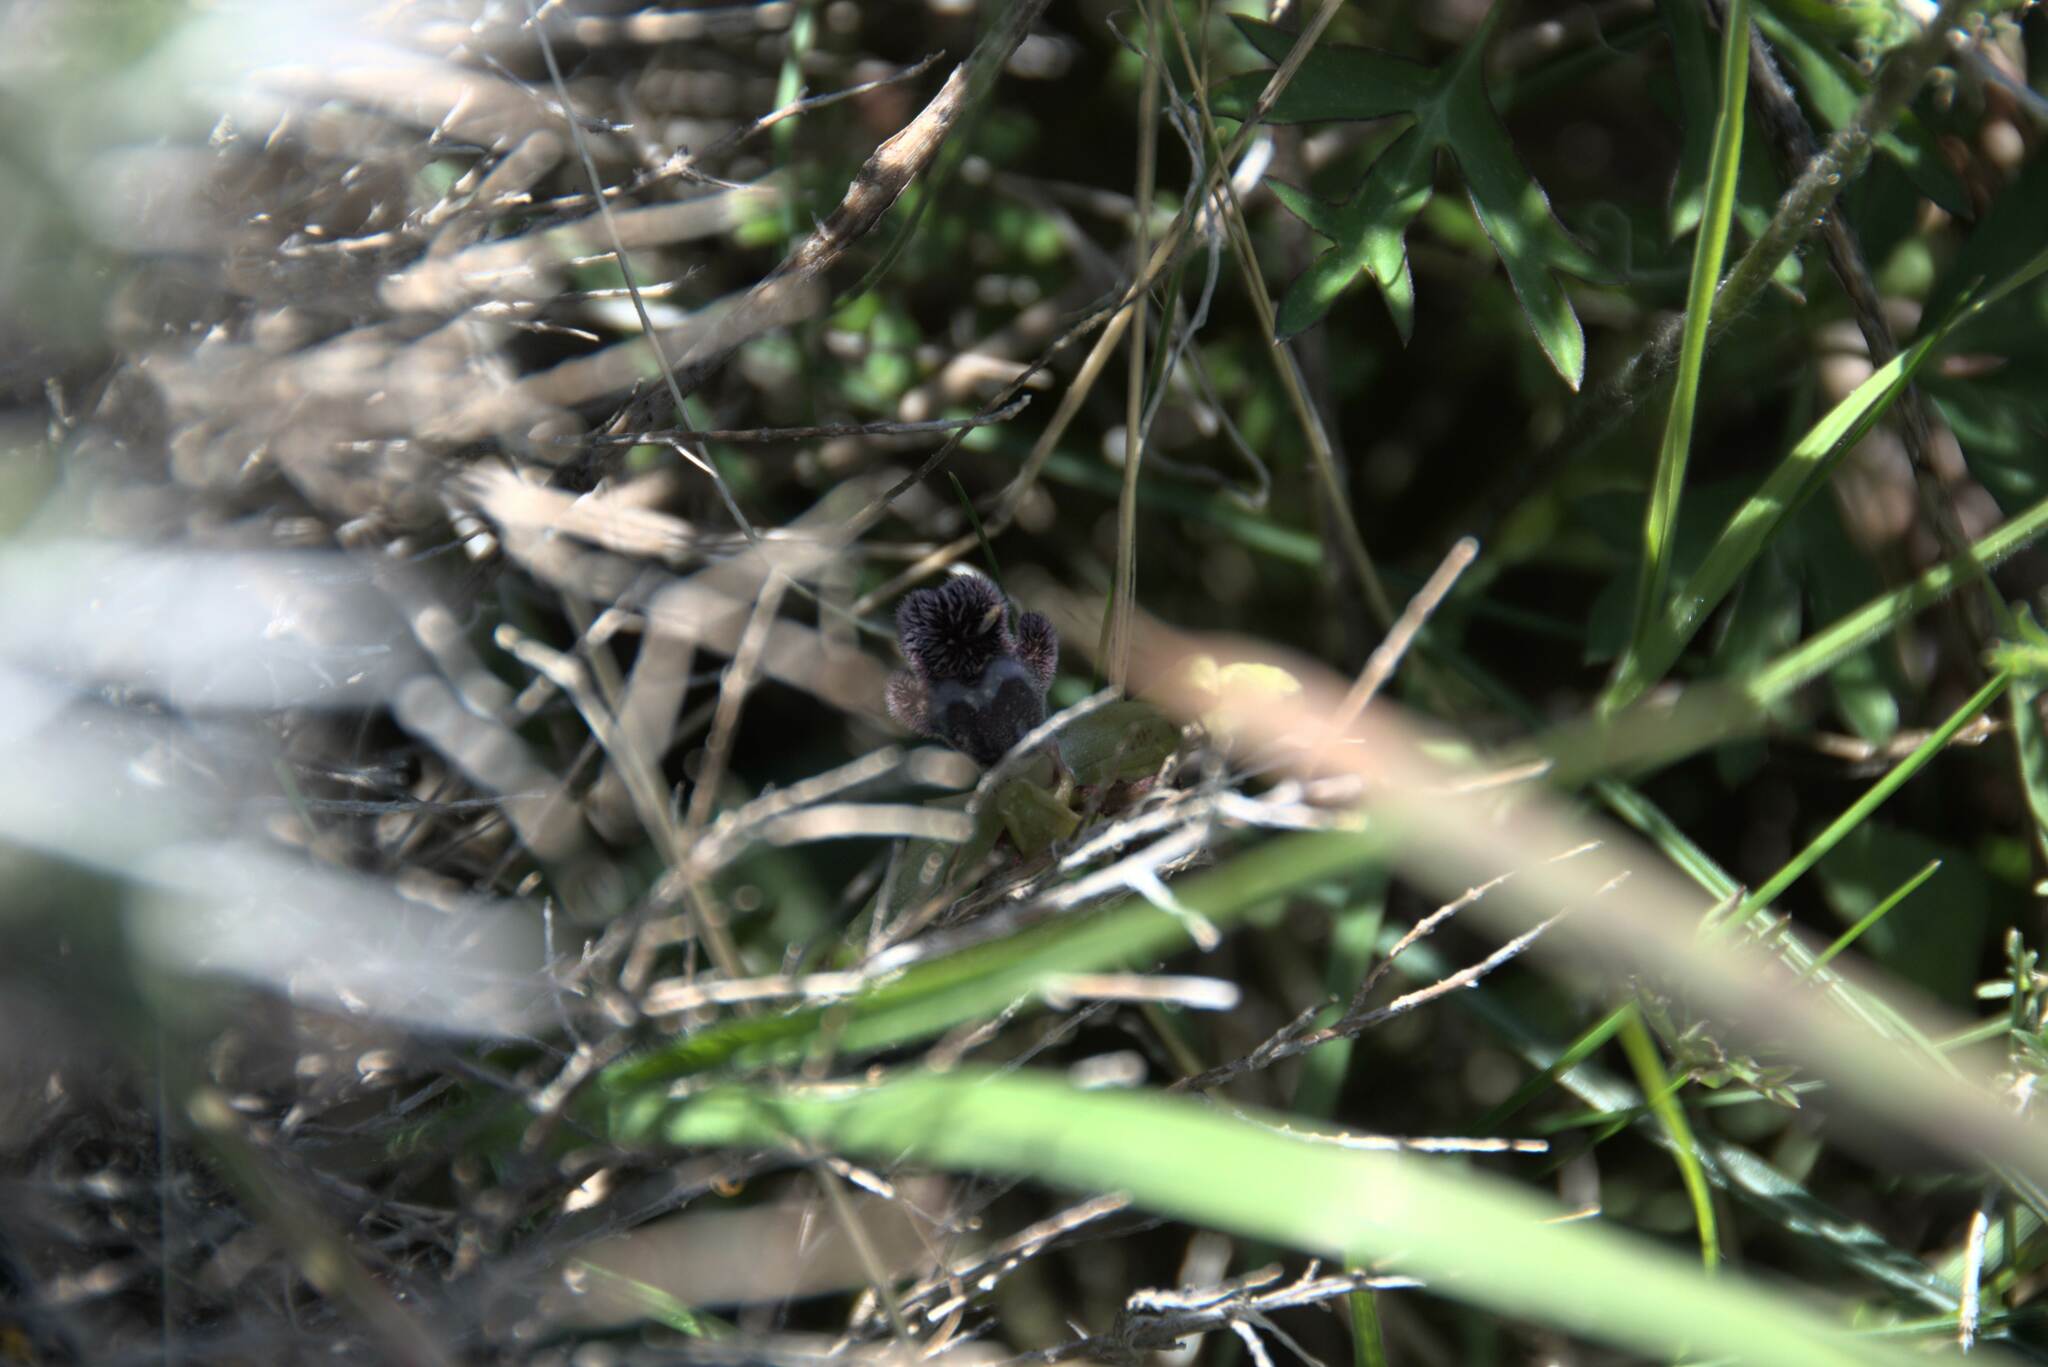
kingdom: Plantae
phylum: Tracheophyta
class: Liliopsida
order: Asparagales
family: Orchidaceae
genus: Ophrys
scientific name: Ophrys omegaifera
